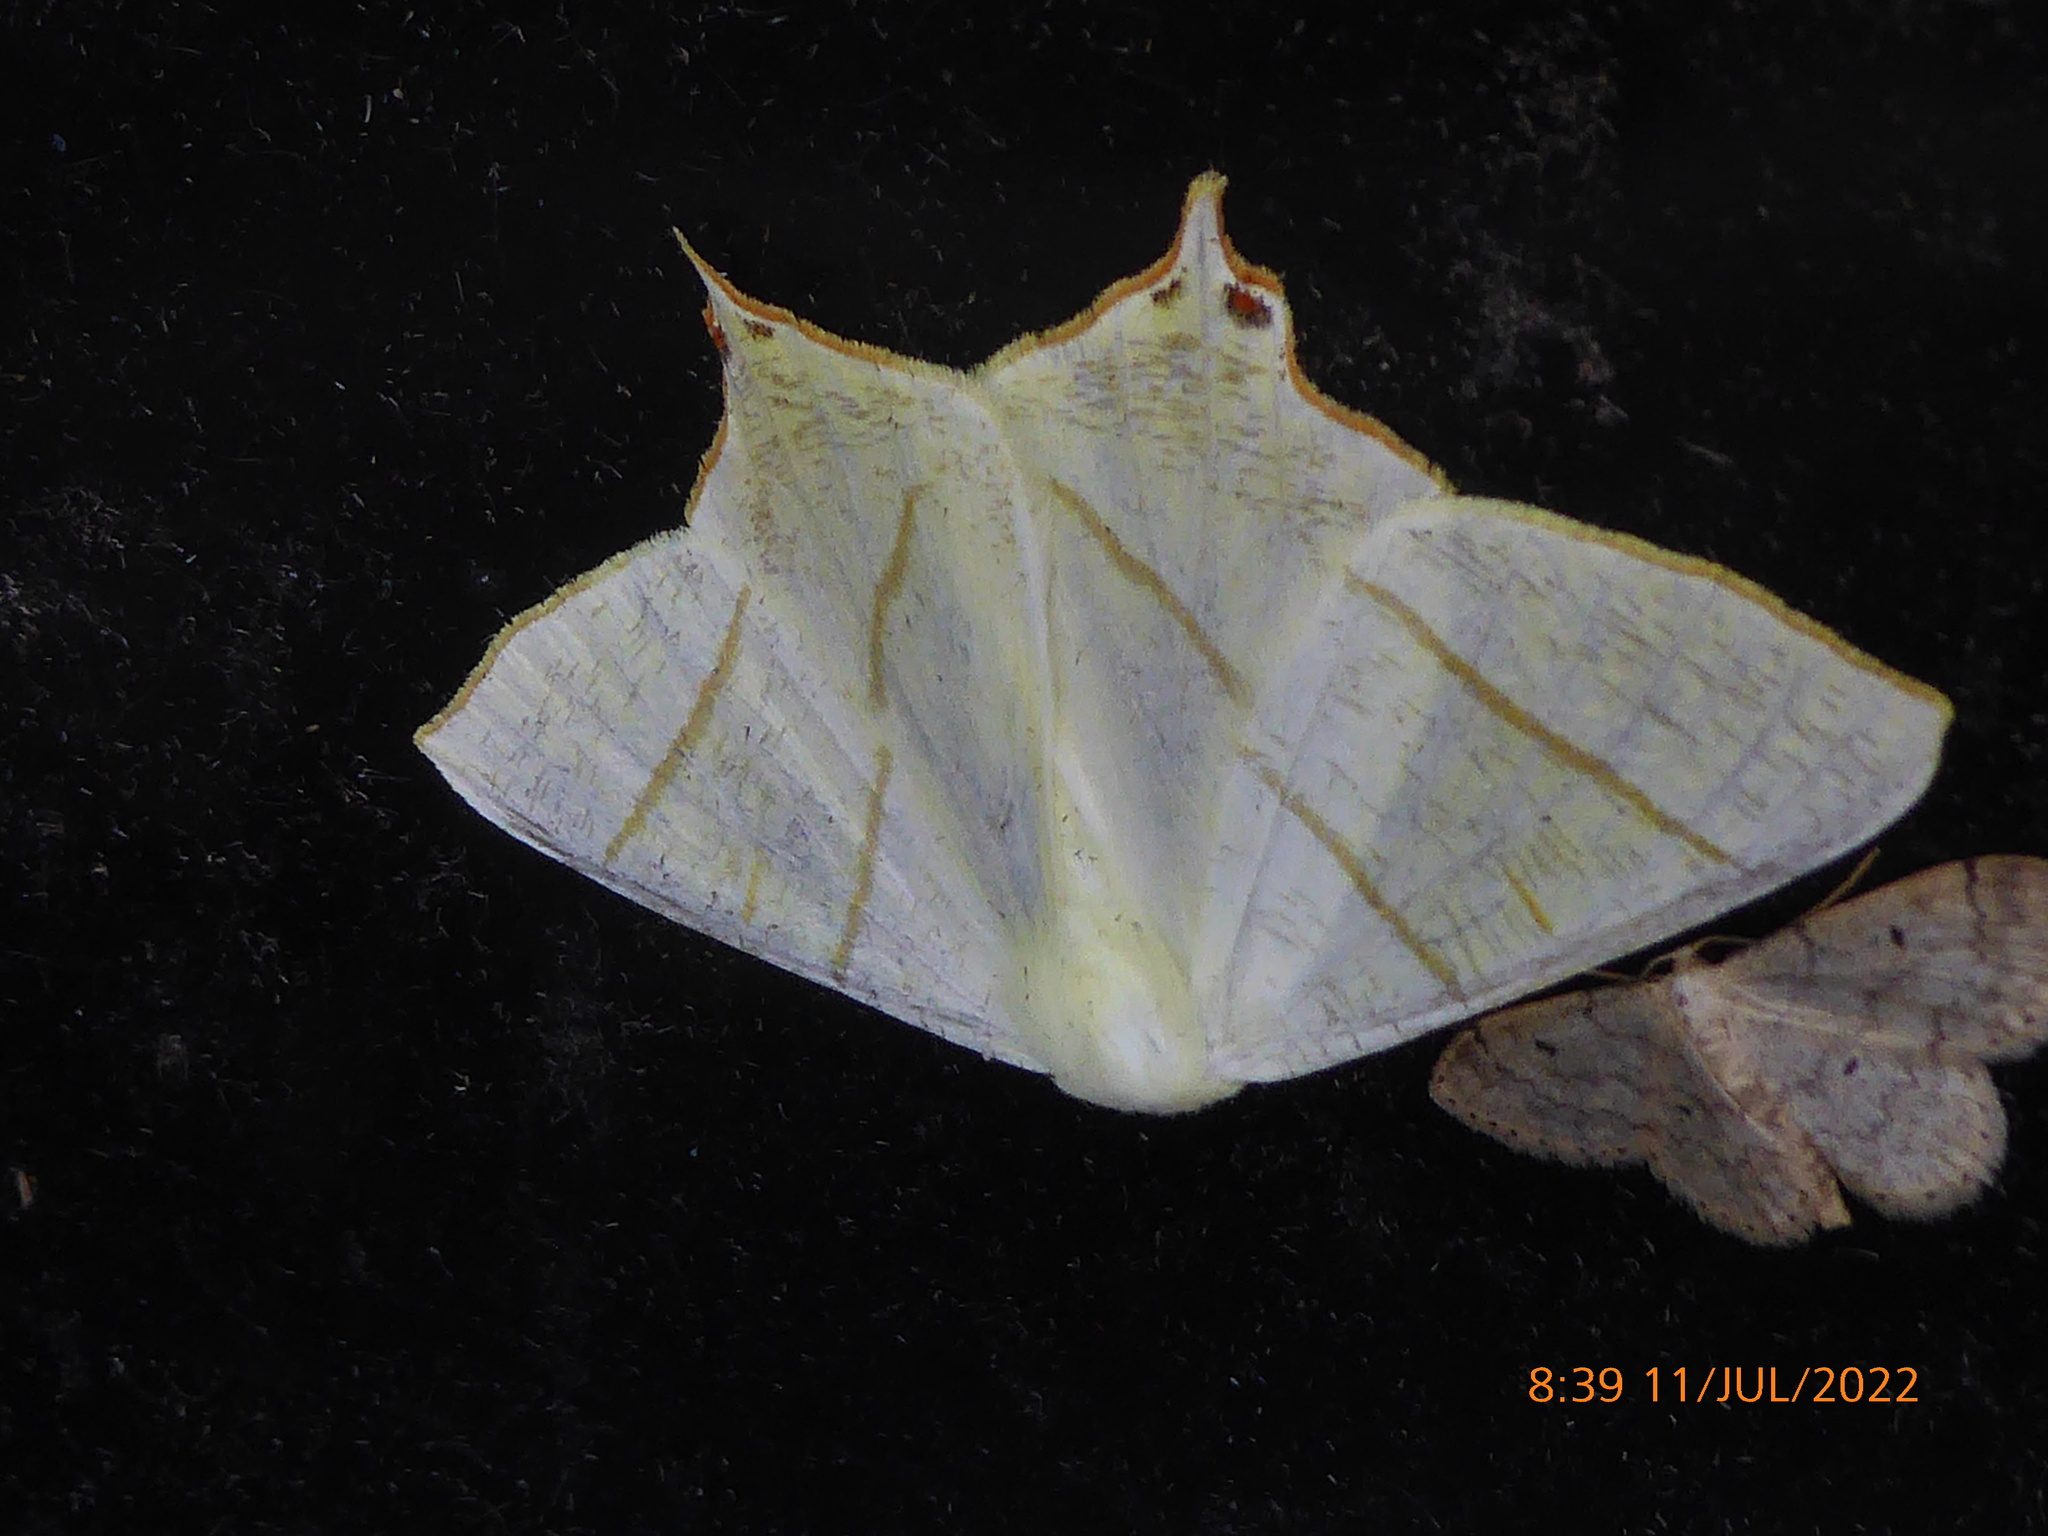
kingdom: Animalia
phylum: Arthropoda
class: Insecta
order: Lepidoptera
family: Geometridae
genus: Ourapteryx
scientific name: Ourapteryx sambucaria
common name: Swallow-tailed moth
